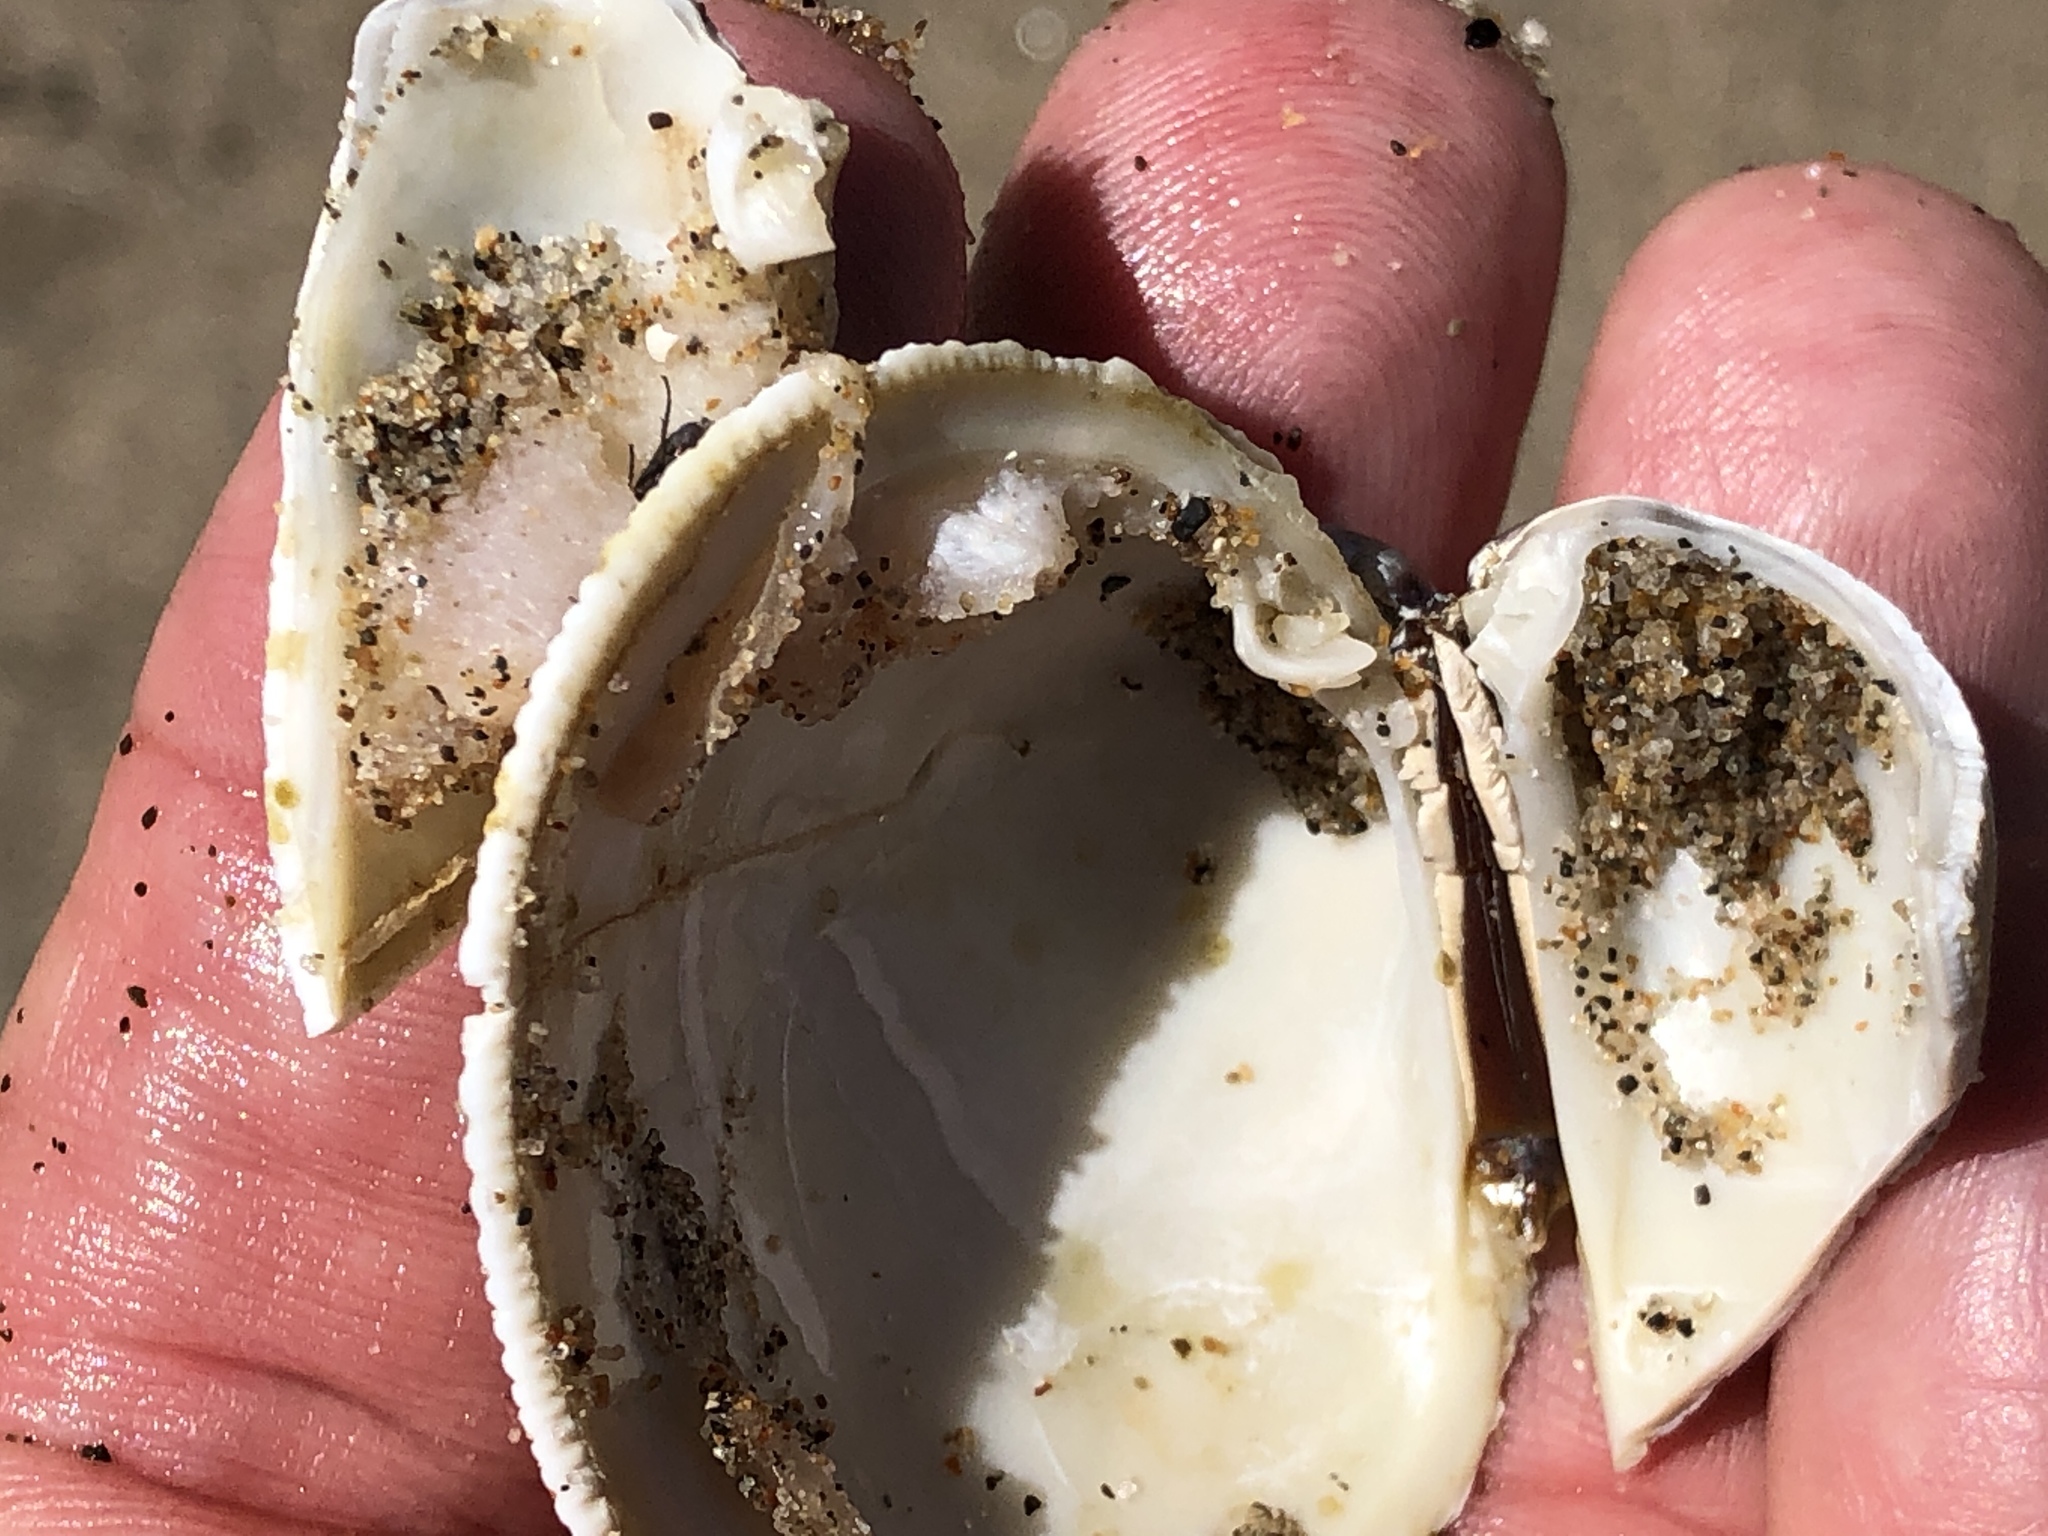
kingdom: Animalia
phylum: Mollusca
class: Bivalvia
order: Venerida
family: Veneridae
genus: Leukoma
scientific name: Leukoma staminea
